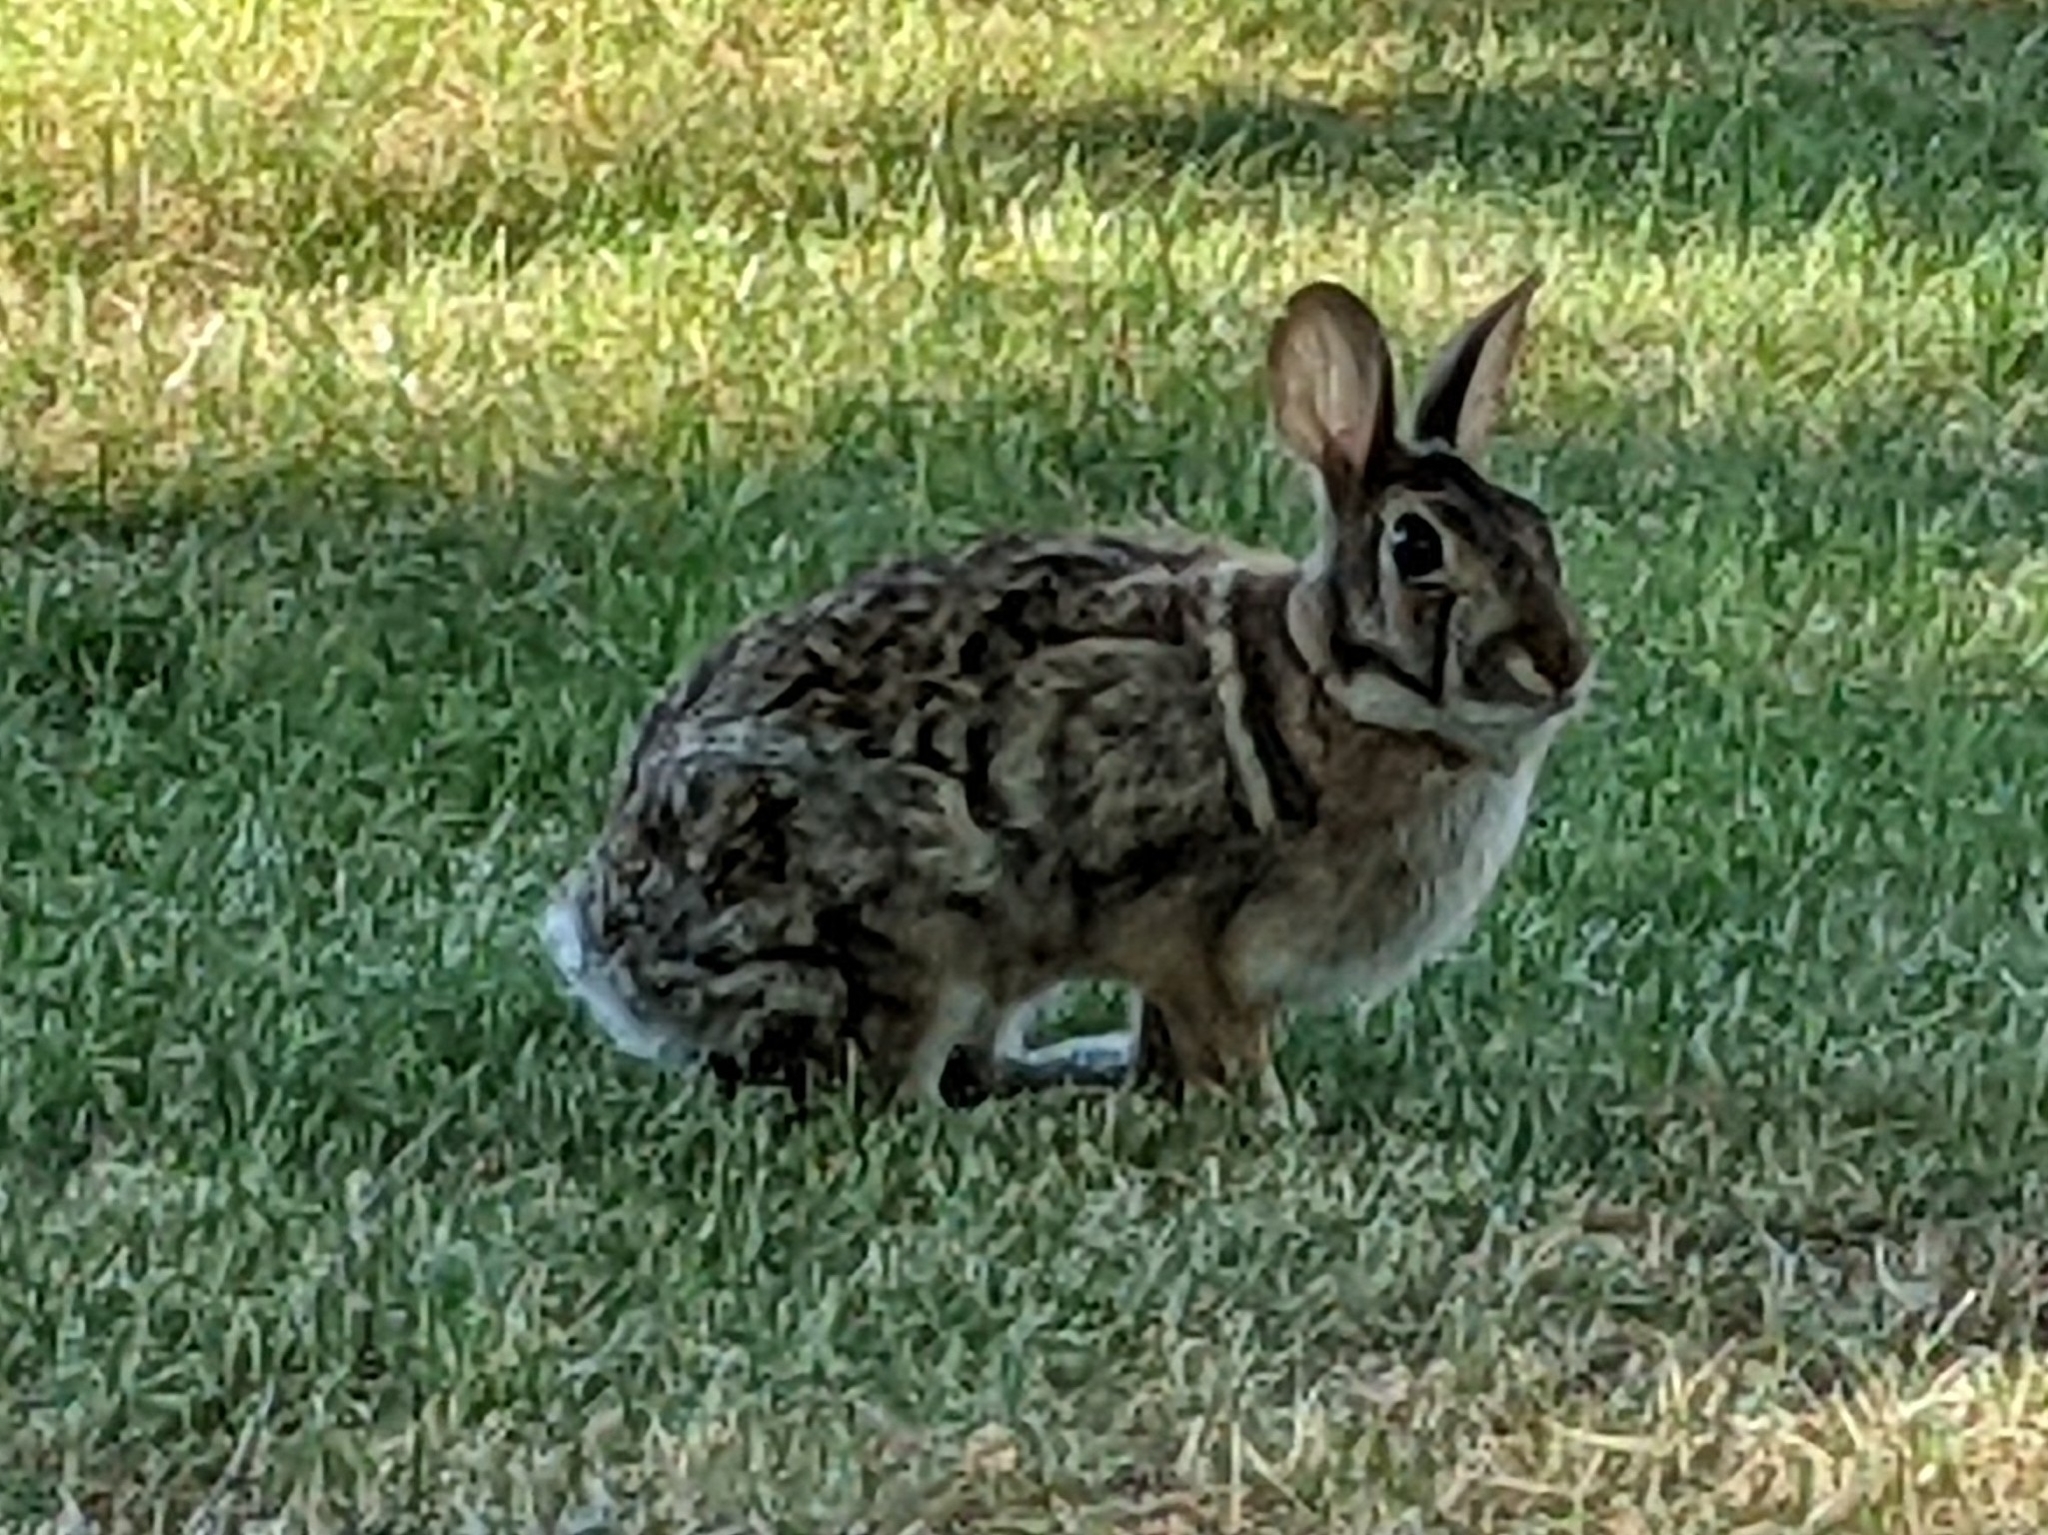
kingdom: Animalia
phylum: Chordata
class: Mammalia
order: Lagomorpha
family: Leporidae
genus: Sylvilagus
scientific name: Sylvilagus floridanus
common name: Eastern cottontail
